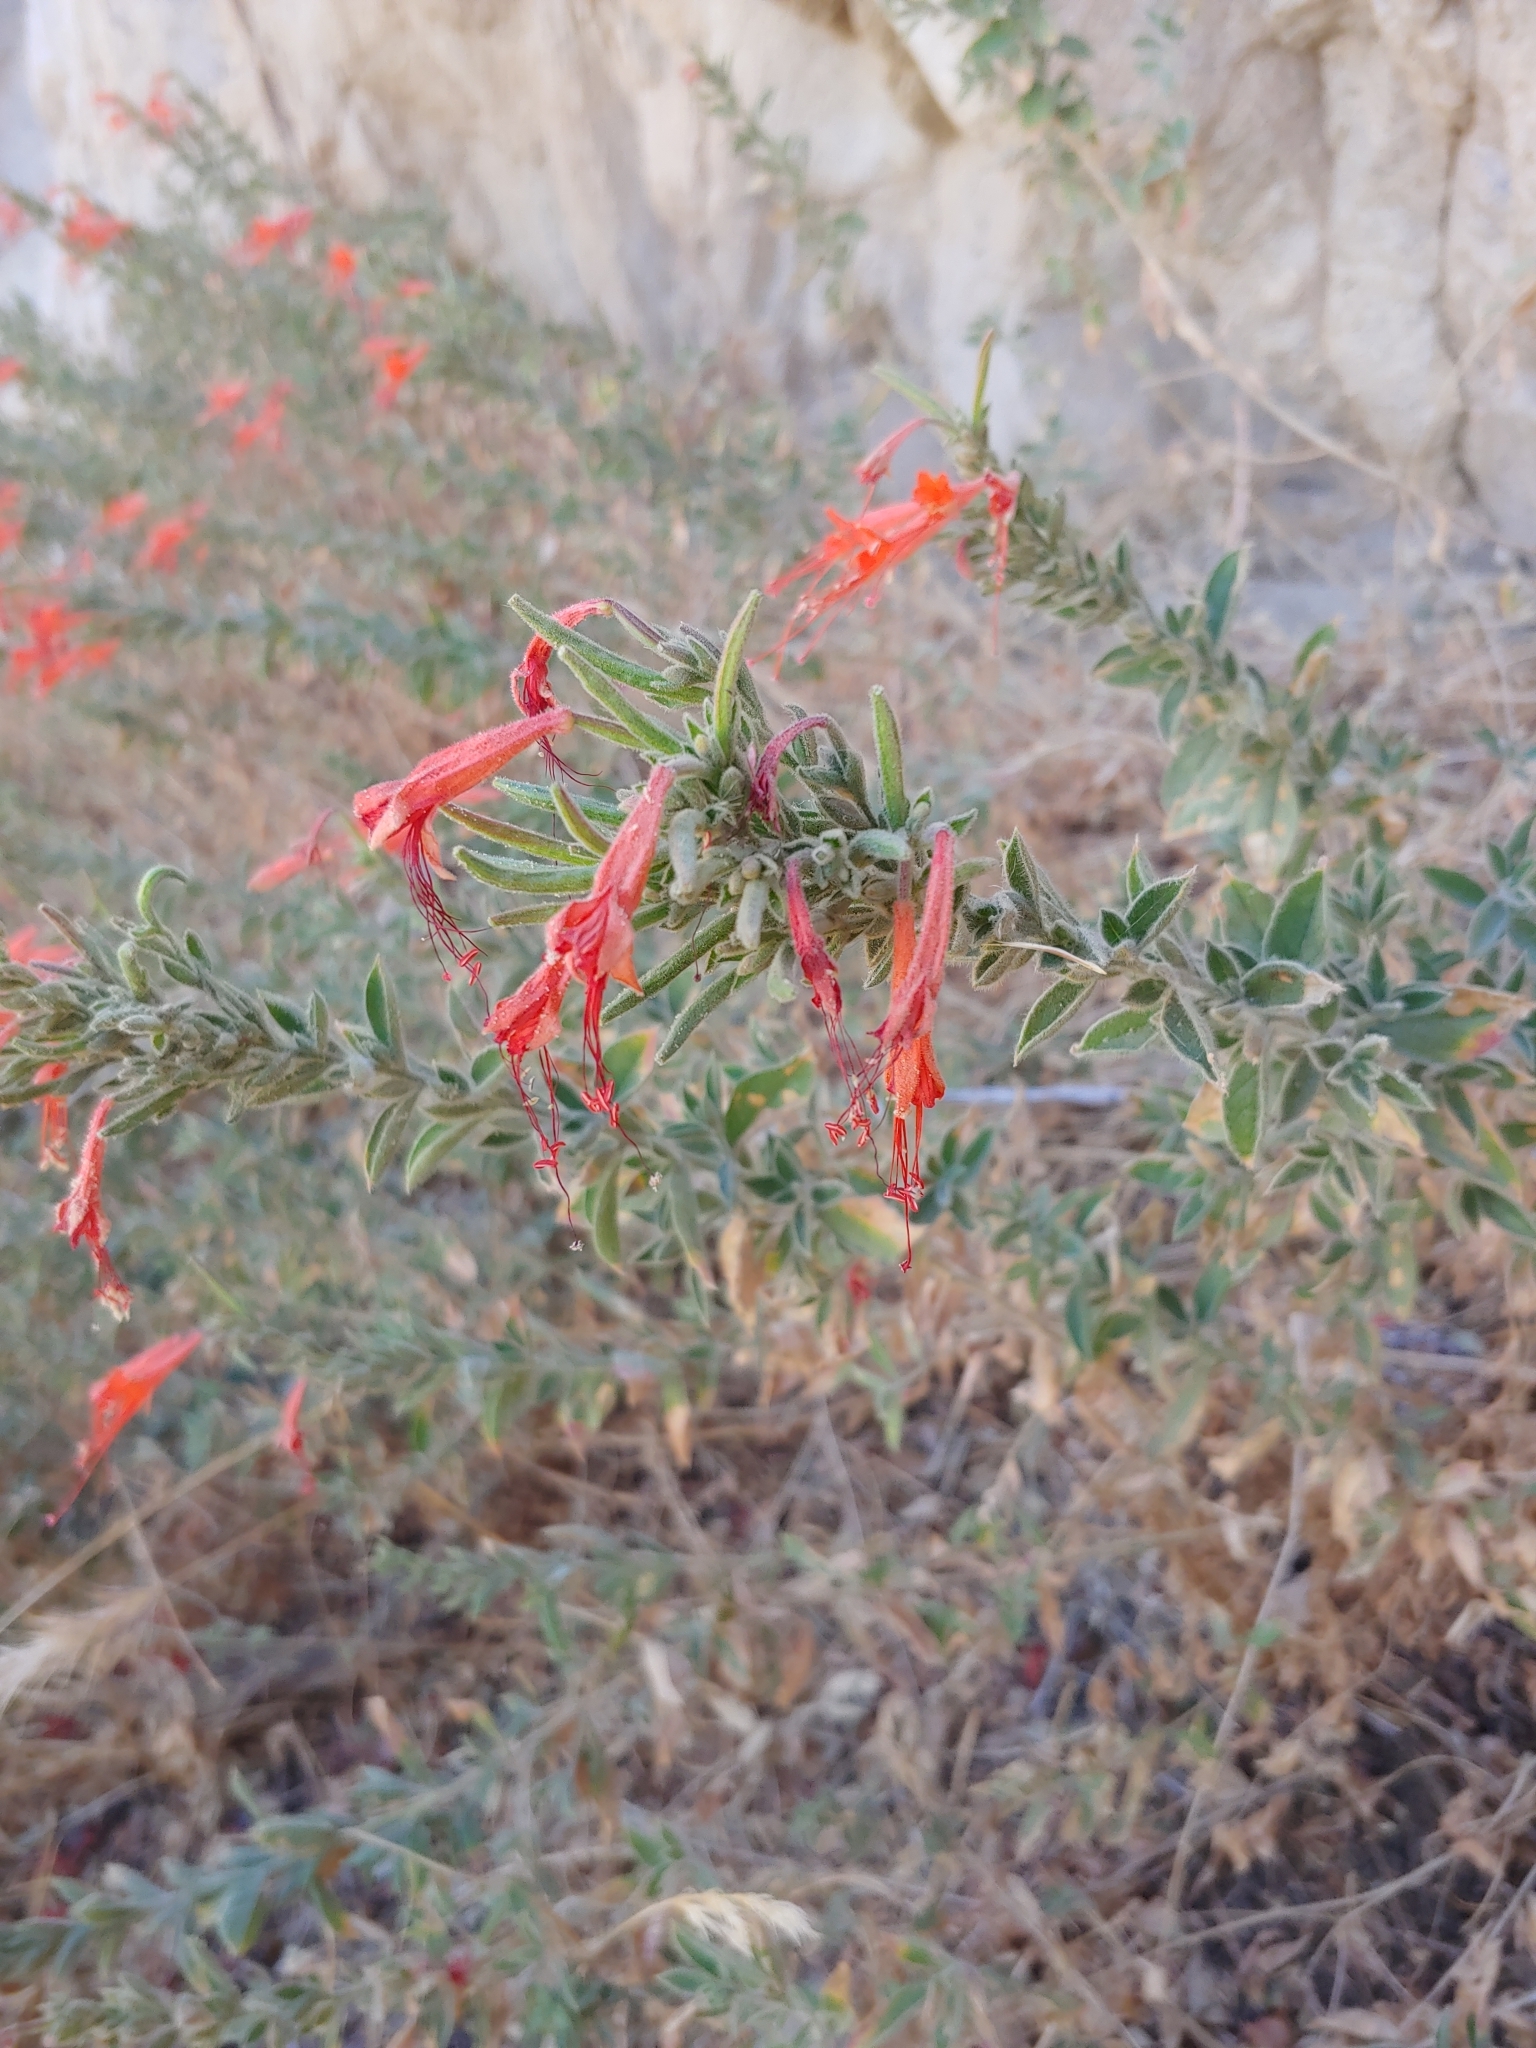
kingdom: Plantae
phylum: Tracheophyta
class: Magnoliopsida
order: Myrtales
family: Onagraceae
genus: Epilobium
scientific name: Epilobium canum
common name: California-fuchsia
